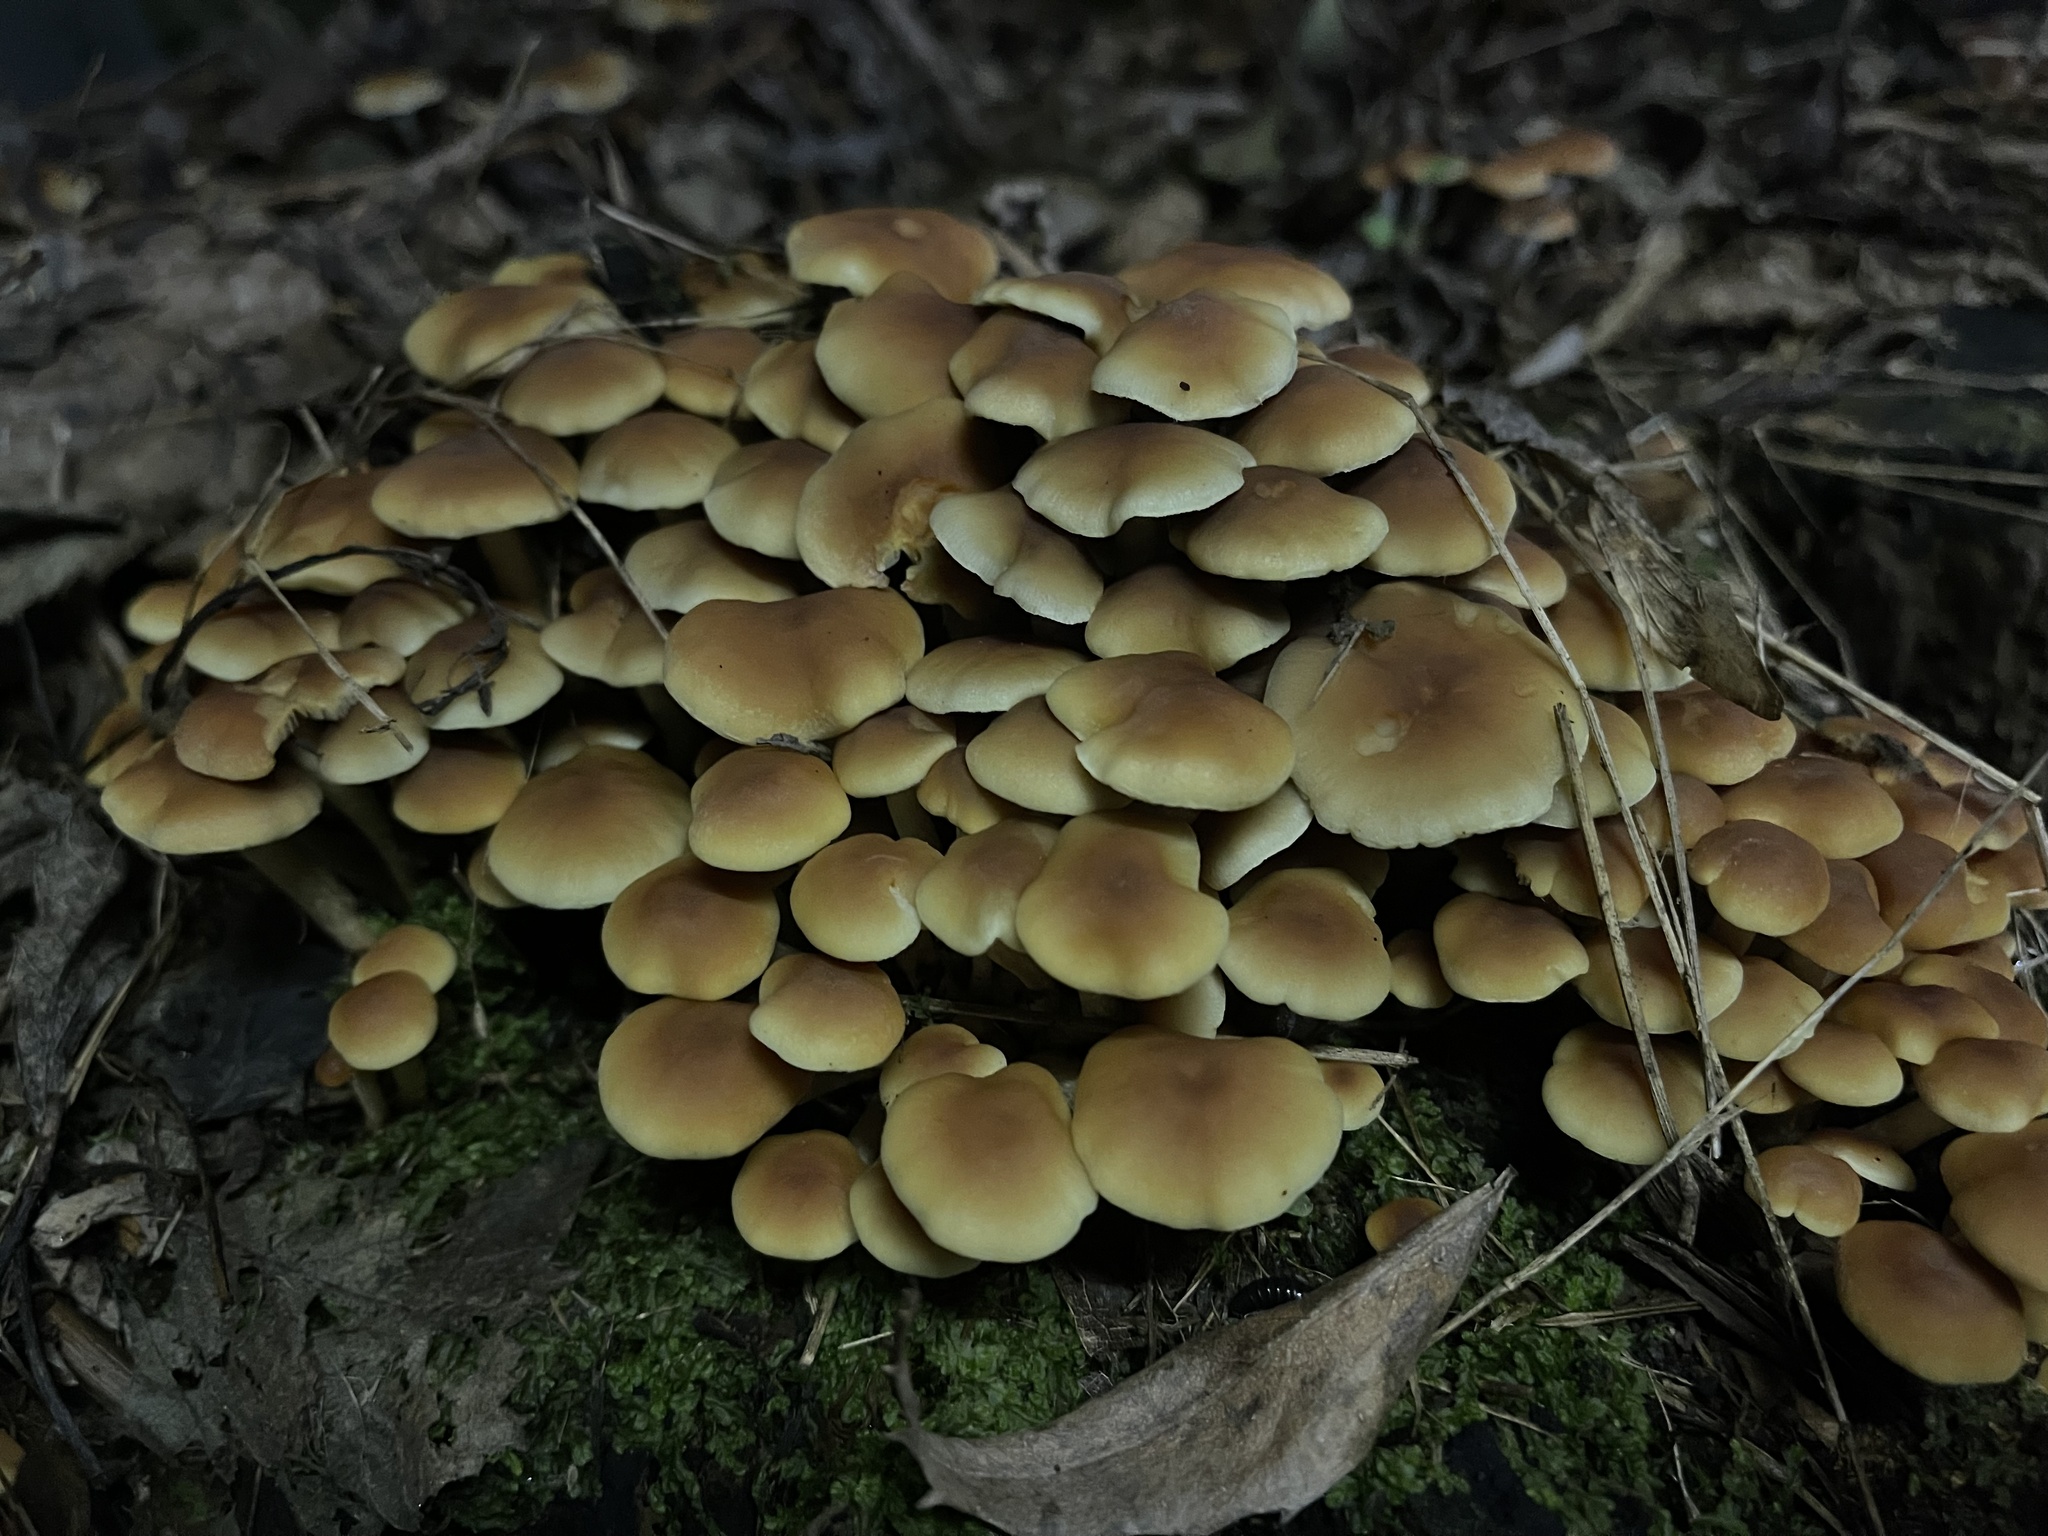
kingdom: Fungi
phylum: Basidiomycota
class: Agaricomycetes
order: Agaricales
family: Strophariaceae
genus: Hypholoma
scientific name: Hypholoma fasciculare
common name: Sulphur tuft
